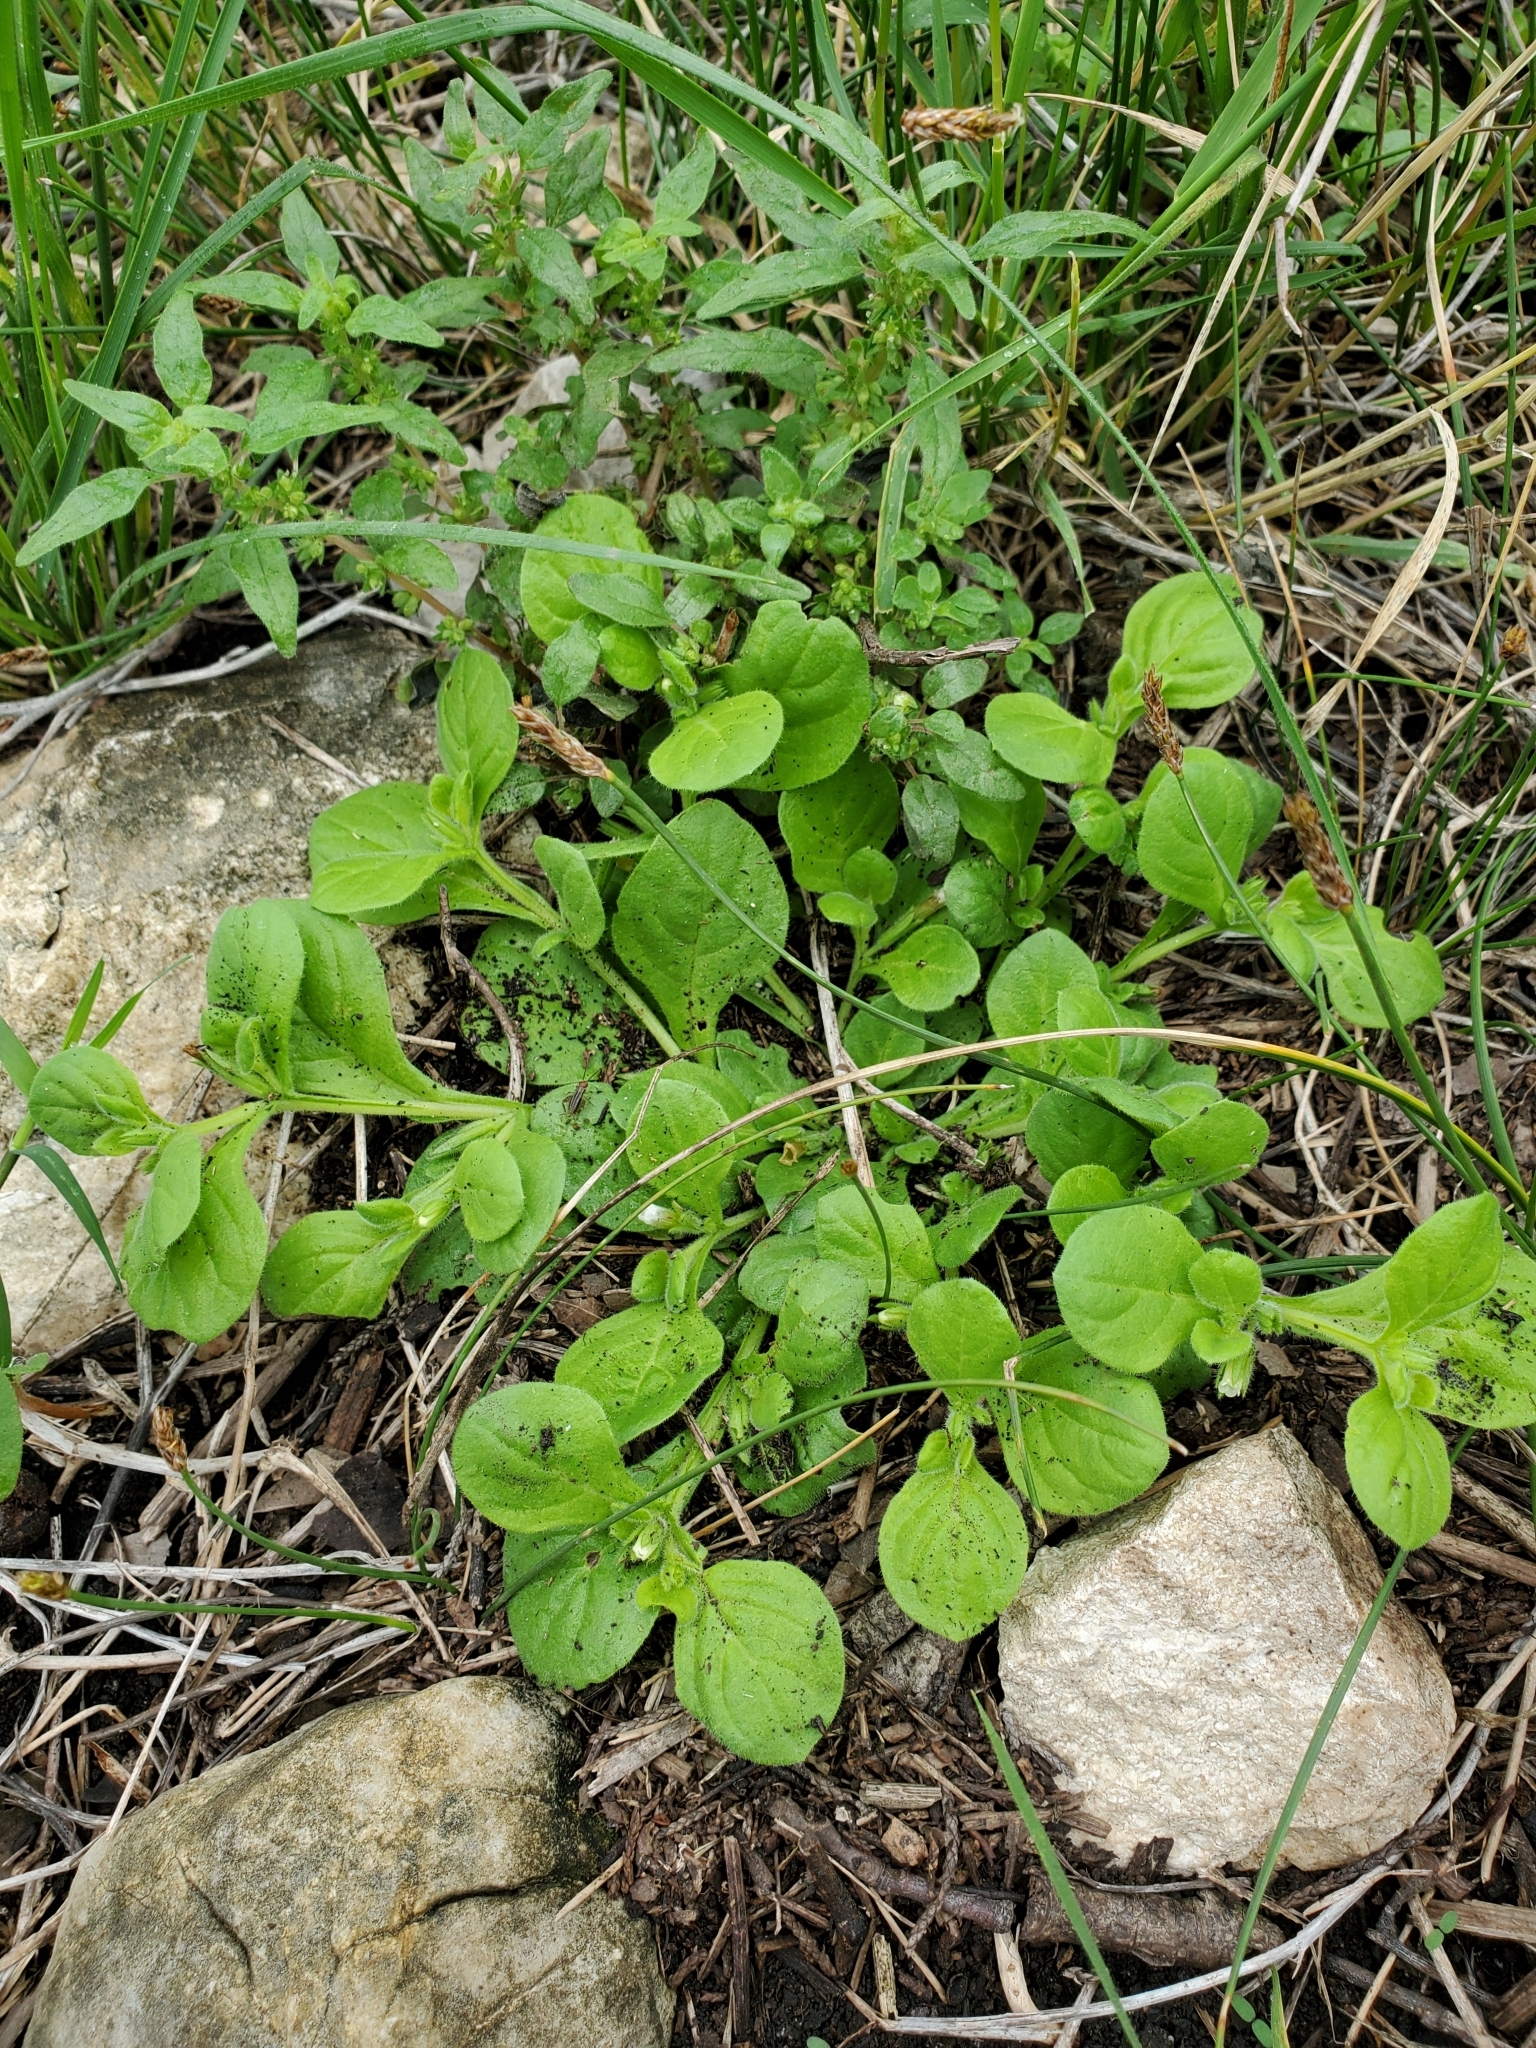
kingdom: Plantae
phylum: Tracheophyta
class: Magnoliopsida
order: Boraginales
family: Namaceae
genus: Nama
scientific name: Nama jamaicensis
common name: Jamaicanweed
